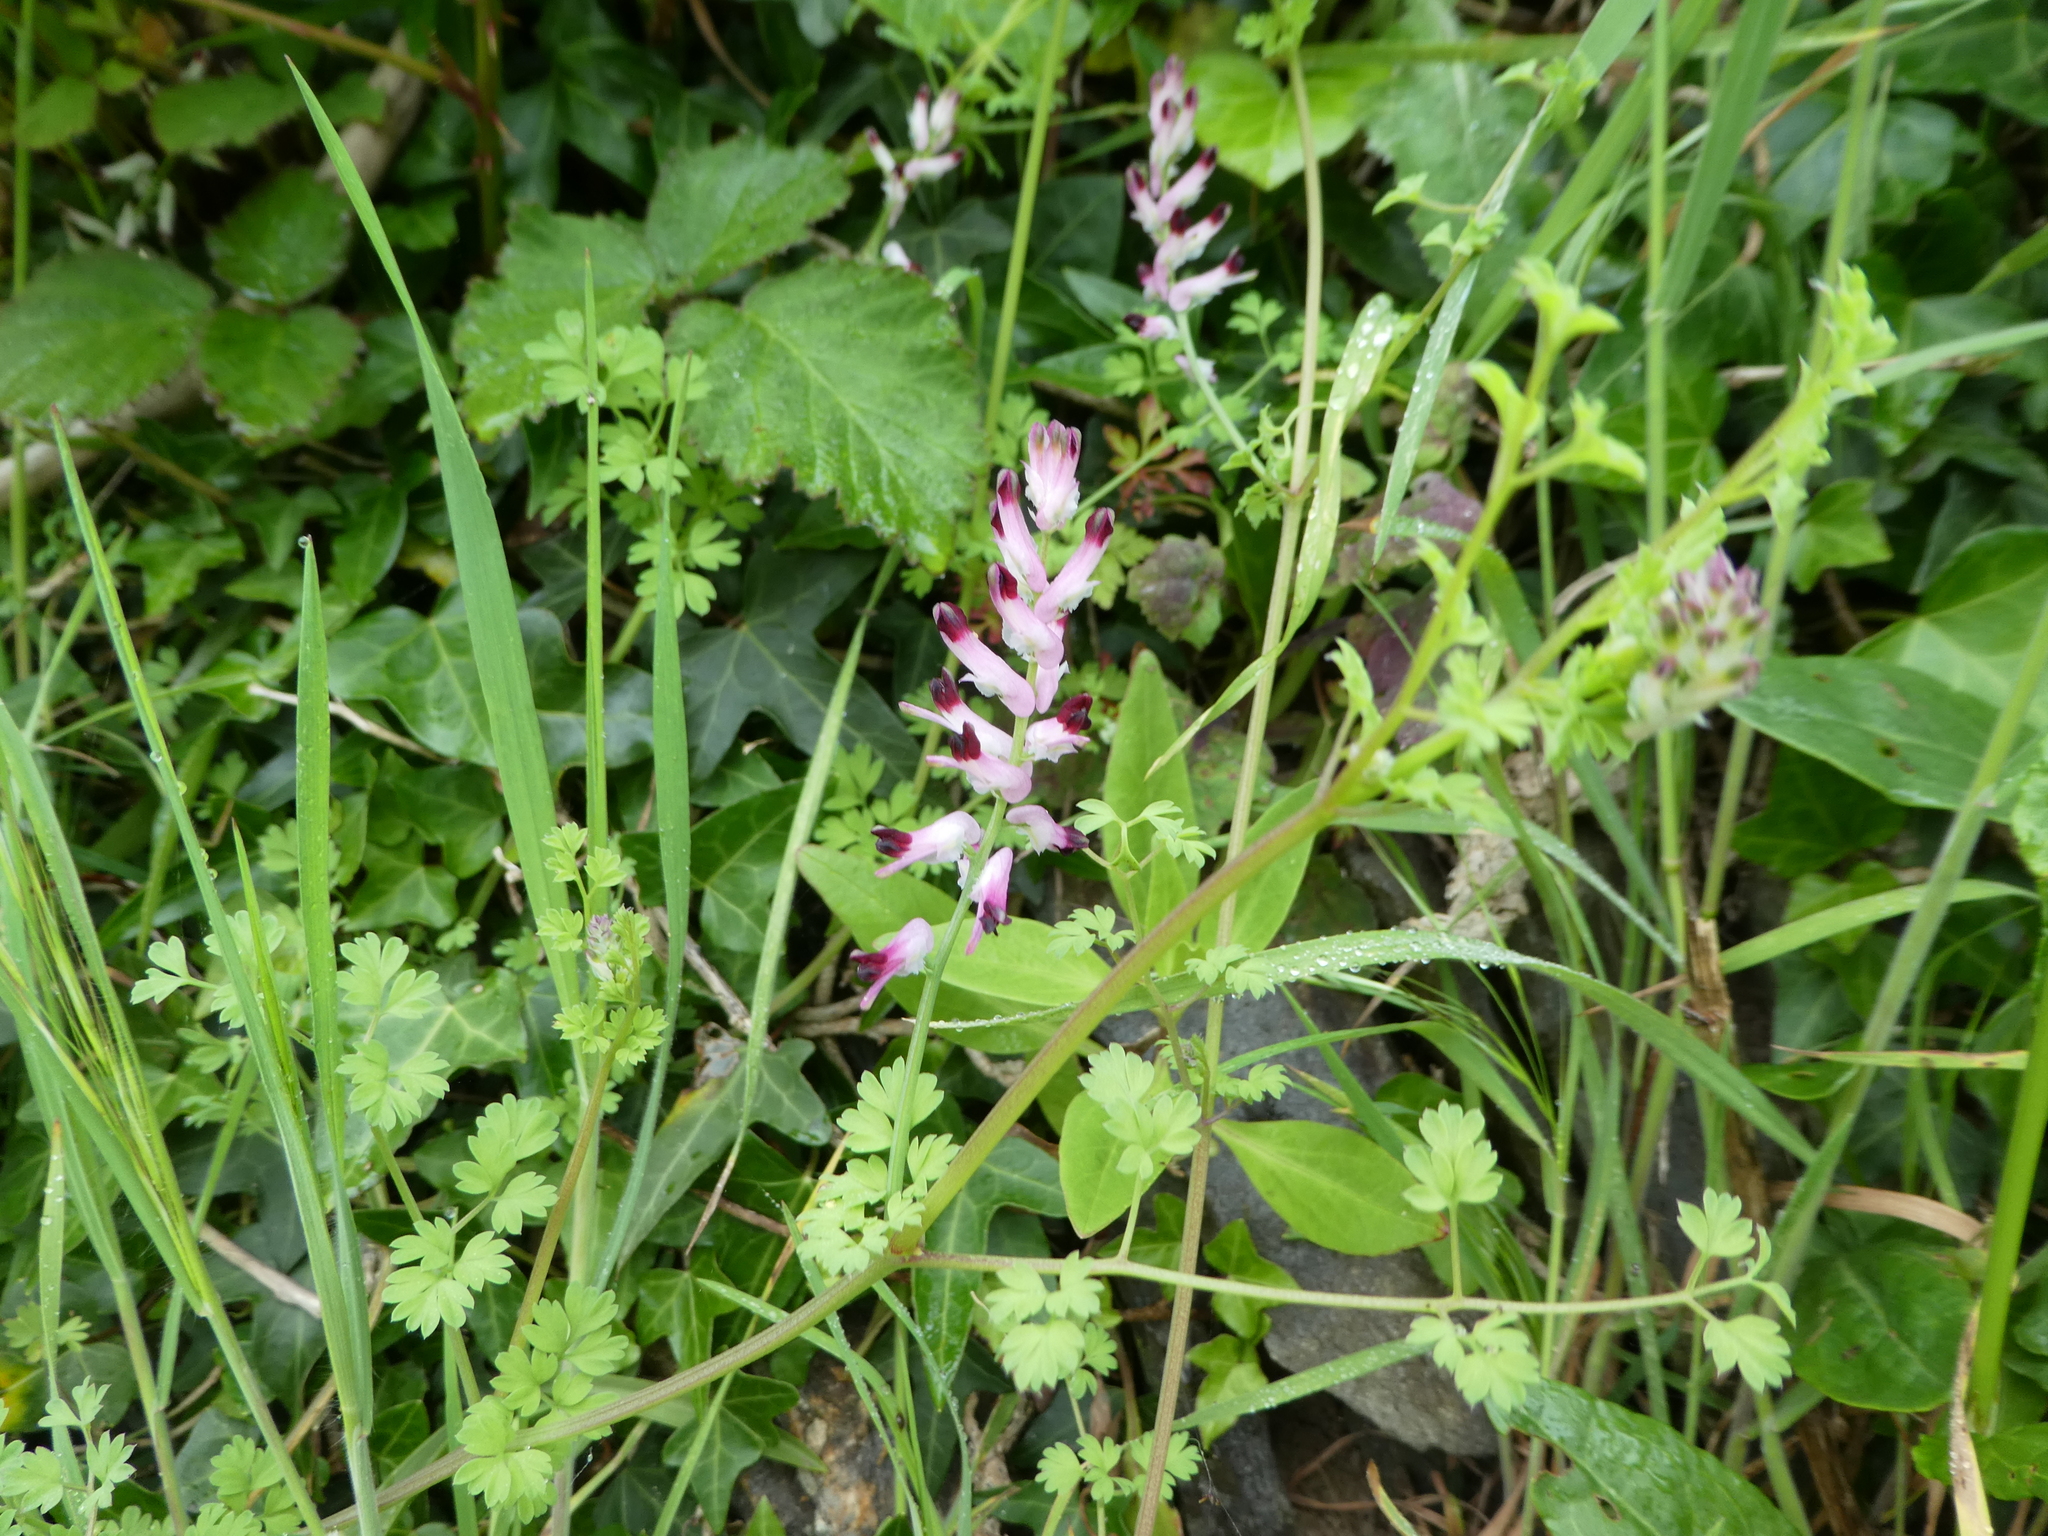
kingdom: Plantae
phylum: Tracheophyta
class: Magnoliopsida
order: Ranunculales
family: Papaveraceae
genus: Fumaria
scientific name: Fumaria muralis
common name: Common ramping-fumitory
